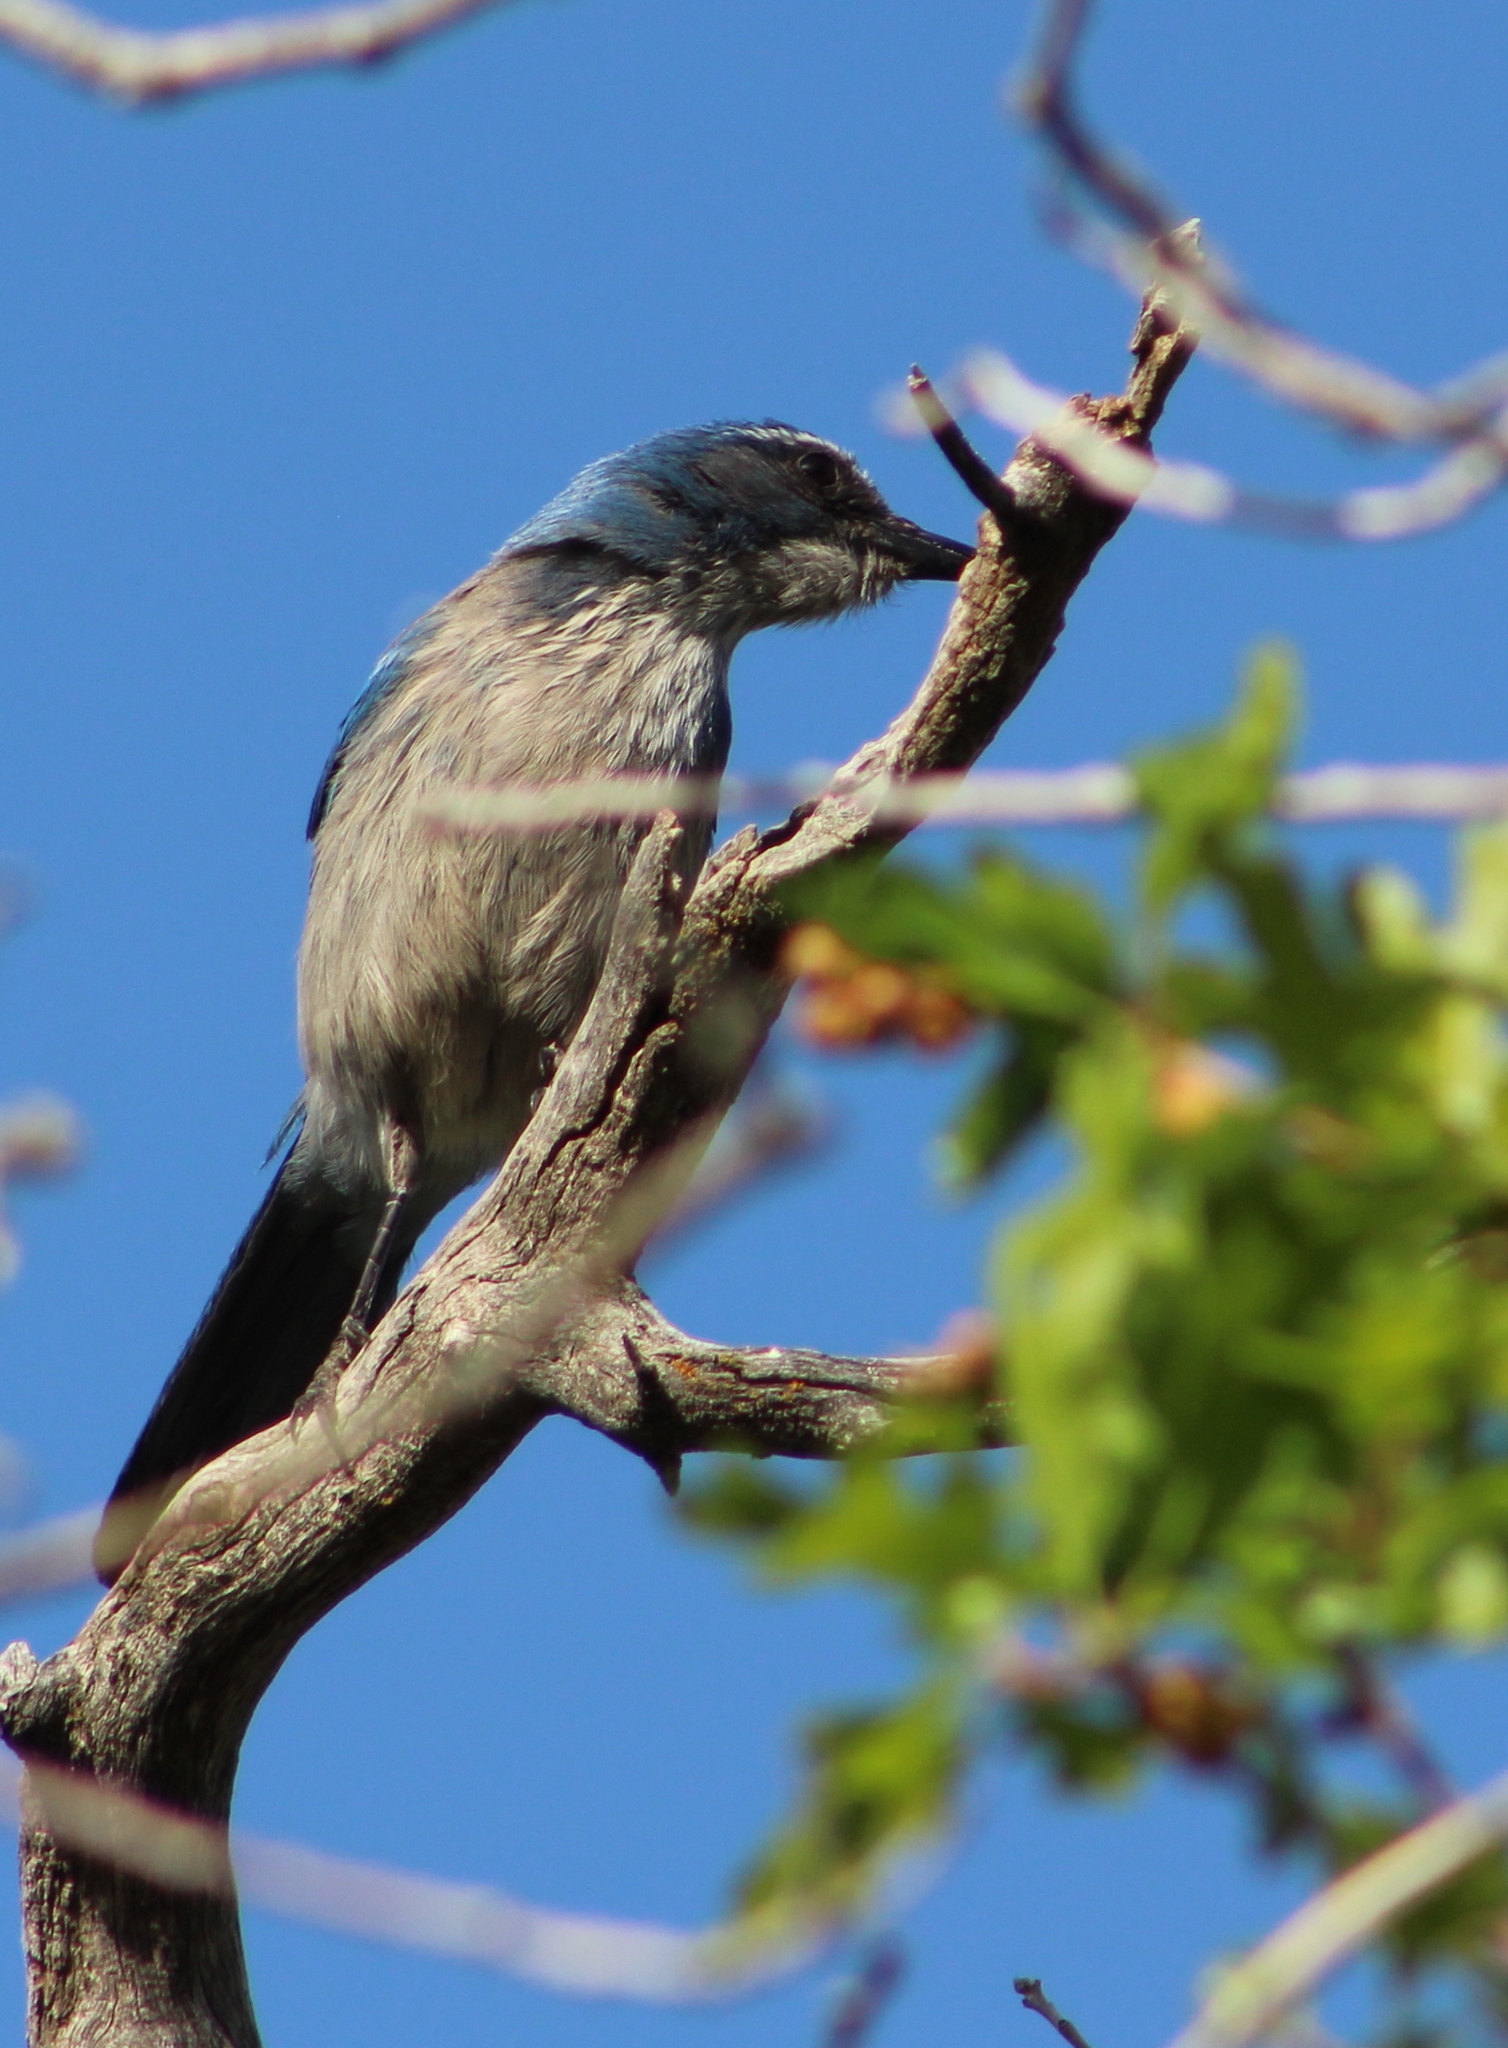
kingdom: Animalia
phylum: Chordata
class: Aves
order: Passeriformes
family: Corvidae
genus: Aphelocoma
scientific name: Aphelocoma woodhouseii
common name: Woodhouse's scrub-jay
